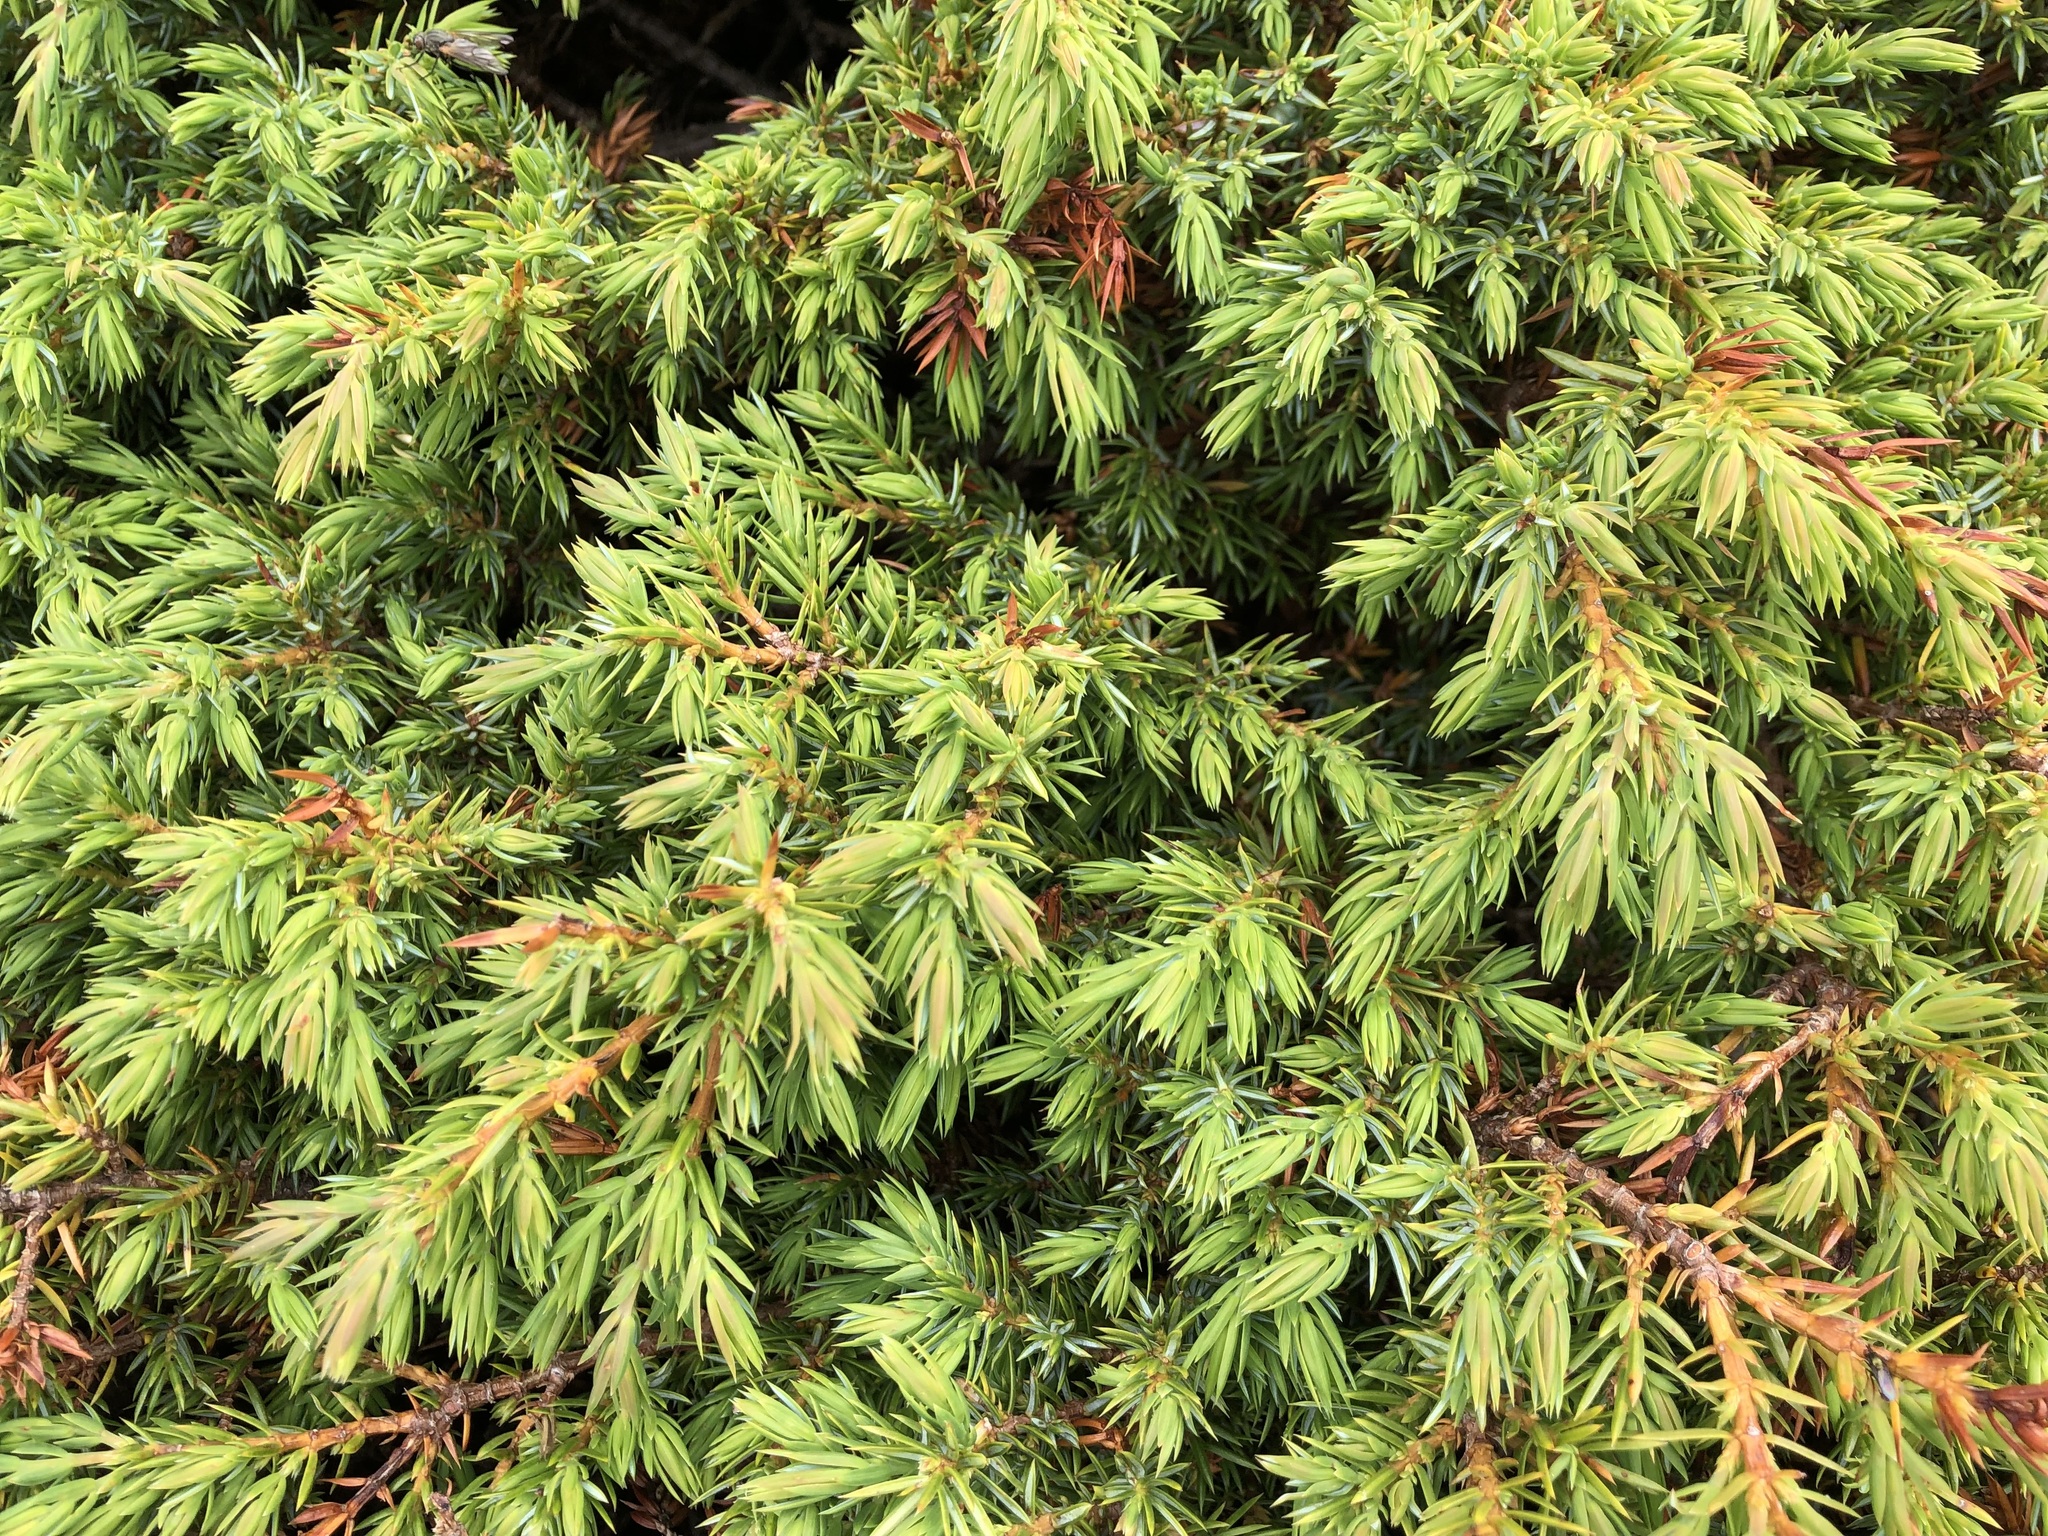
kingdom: Plantae
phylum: Tracheophyta
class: Pinopsida
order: Pinales
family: Cupressaceae
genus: Juniperus
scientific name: Juniperus communis
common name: Common juniper
